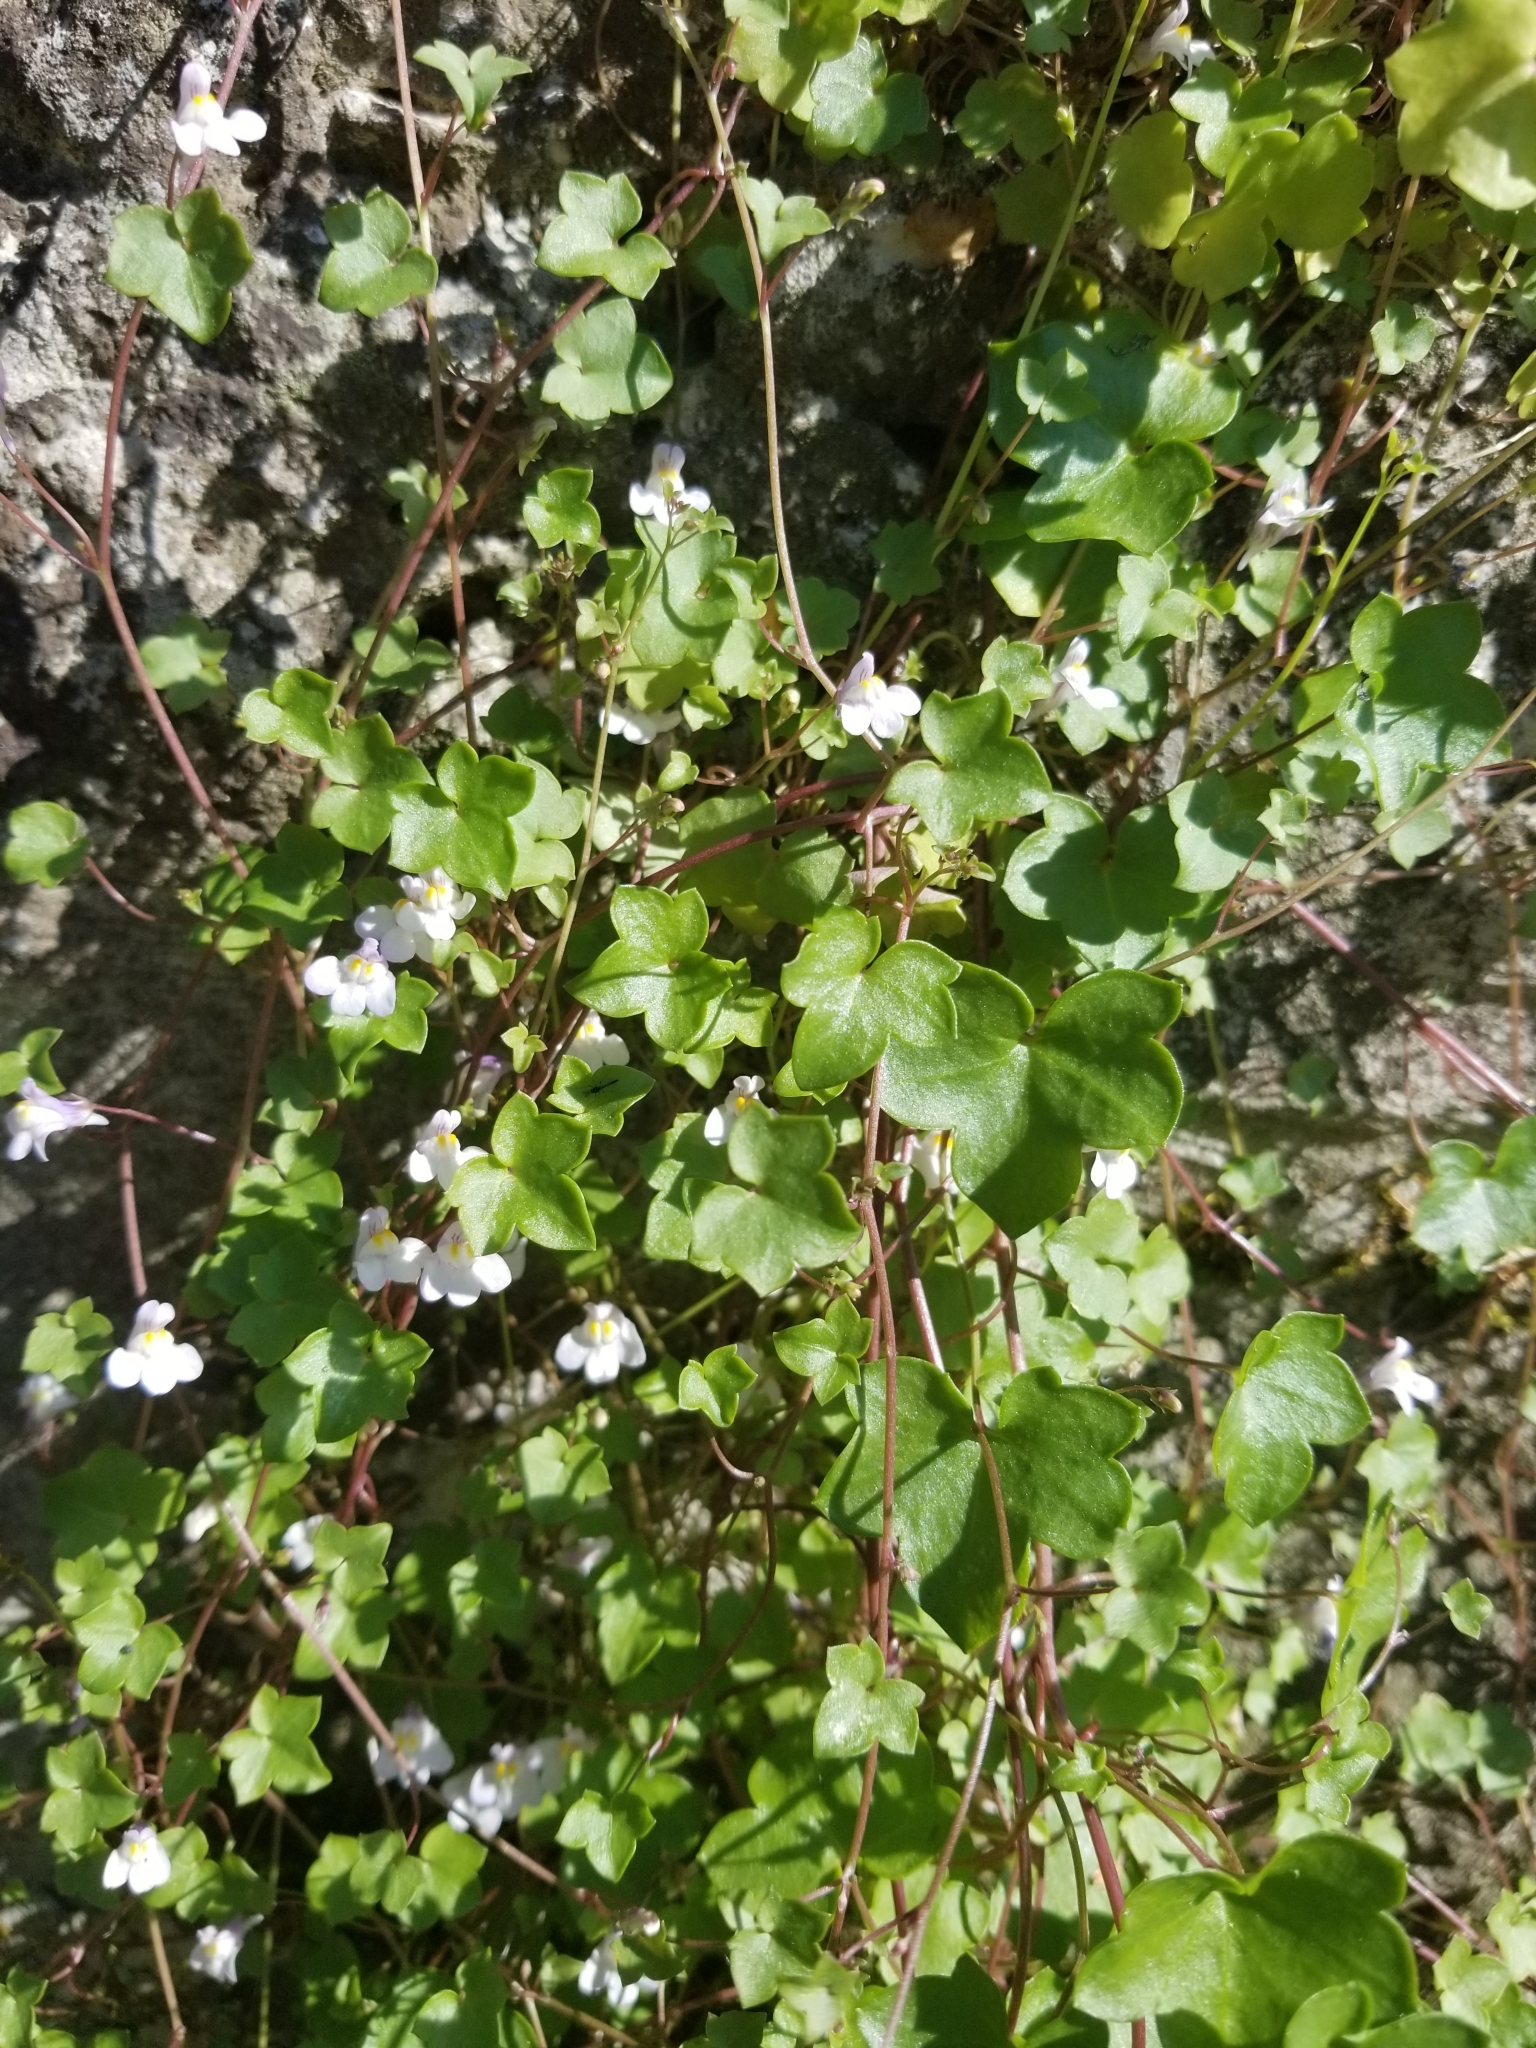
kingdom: Plantae
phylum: Tracheophyta
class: Magnoliopsida
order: Lamiales
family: Plantaginaceae
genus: Cymbalaria
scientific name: Cymbalaria muralis
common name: Ivy-leaved toadflax
